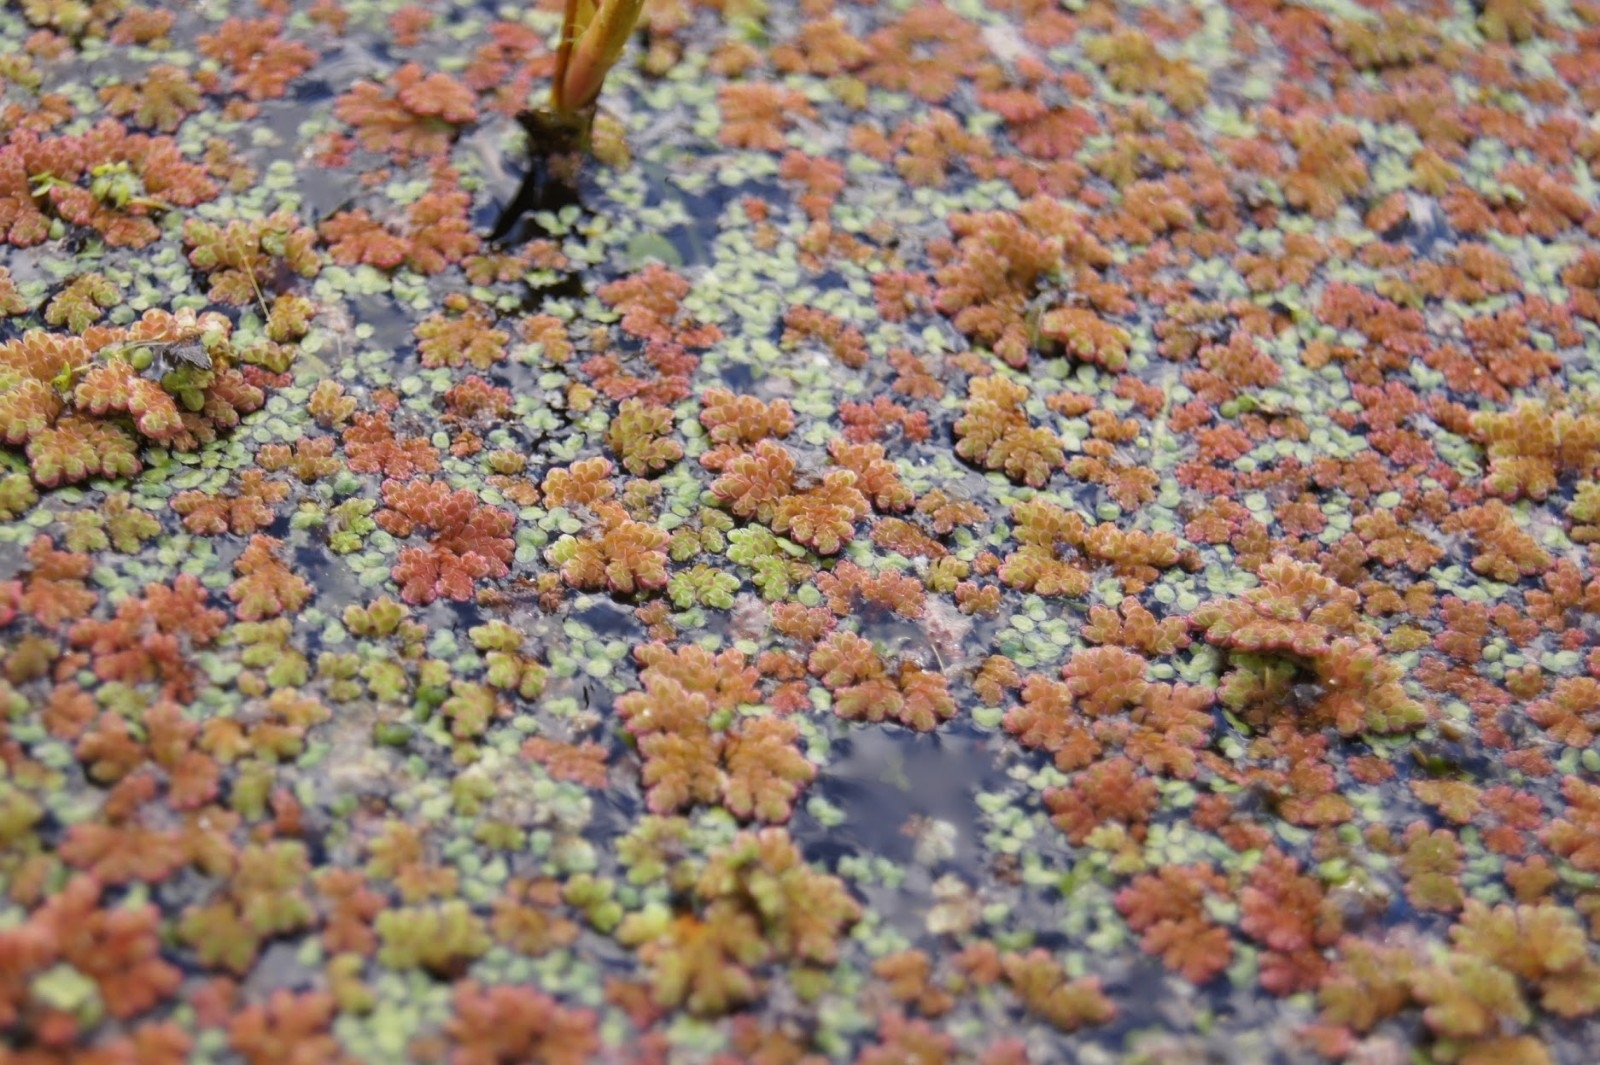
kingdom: Plantae
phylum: Tracheophyta
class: Polypodiopsida
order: Salviniales
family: Salviniaceae
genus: Azolla
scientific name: Azolla filiculoides
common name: Water fern
